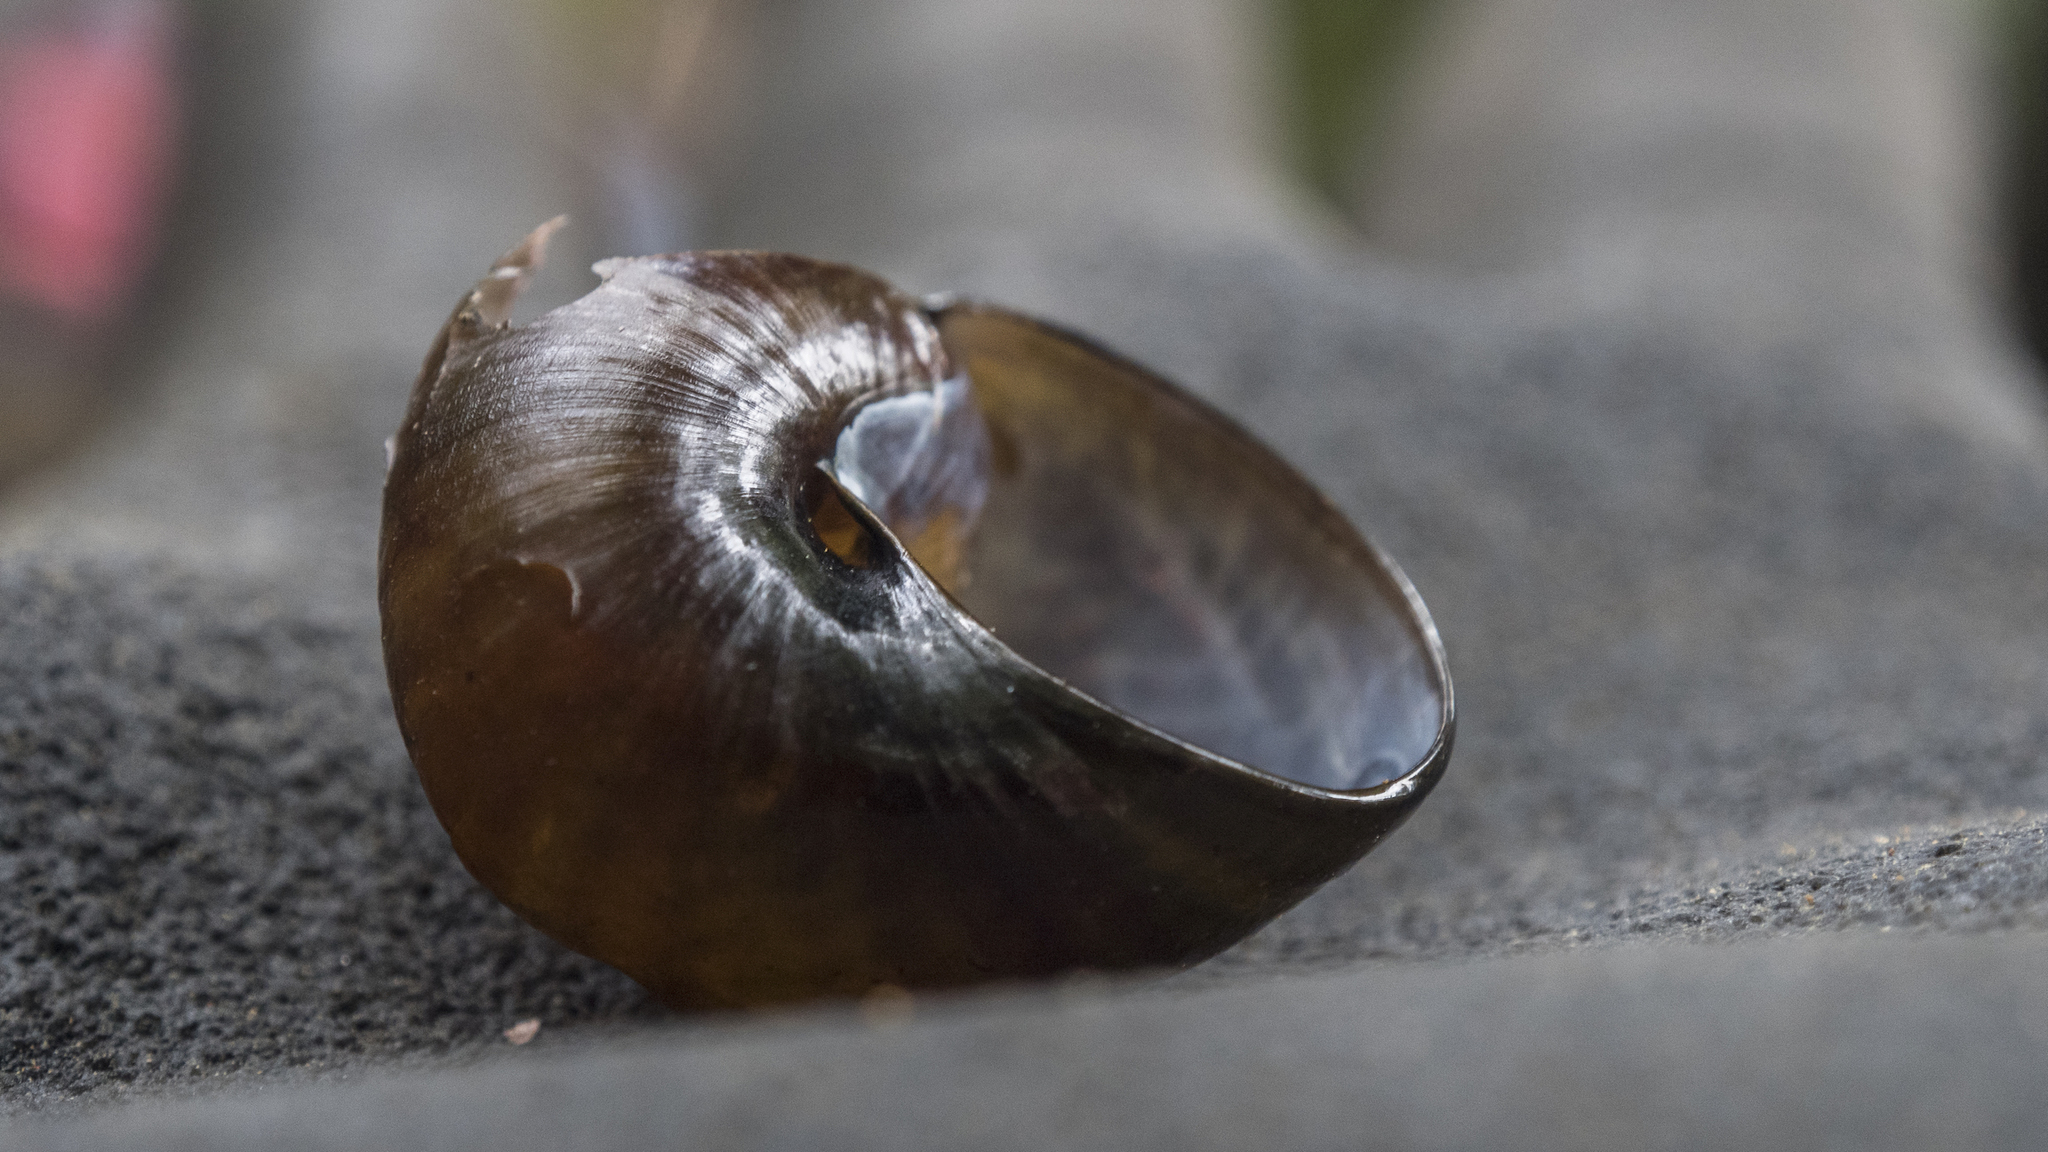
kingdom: Animalia
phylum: Mollusca
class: Gastropoda
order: Stylommatophora
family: Rhytididae
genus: Wainuia
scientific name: Wainuia urnula
